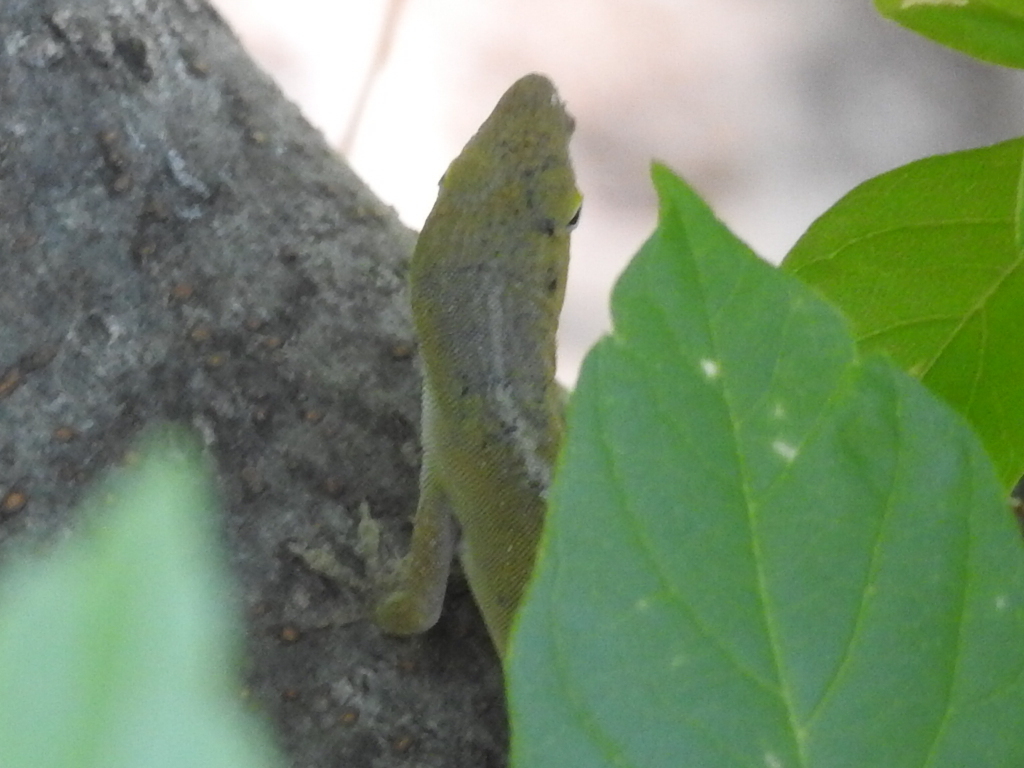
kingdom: Animalia
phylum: Chordata
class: Squamata
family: Dactyloidae
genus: Anolis
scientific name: Anolis carolinensis
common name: Green anole
